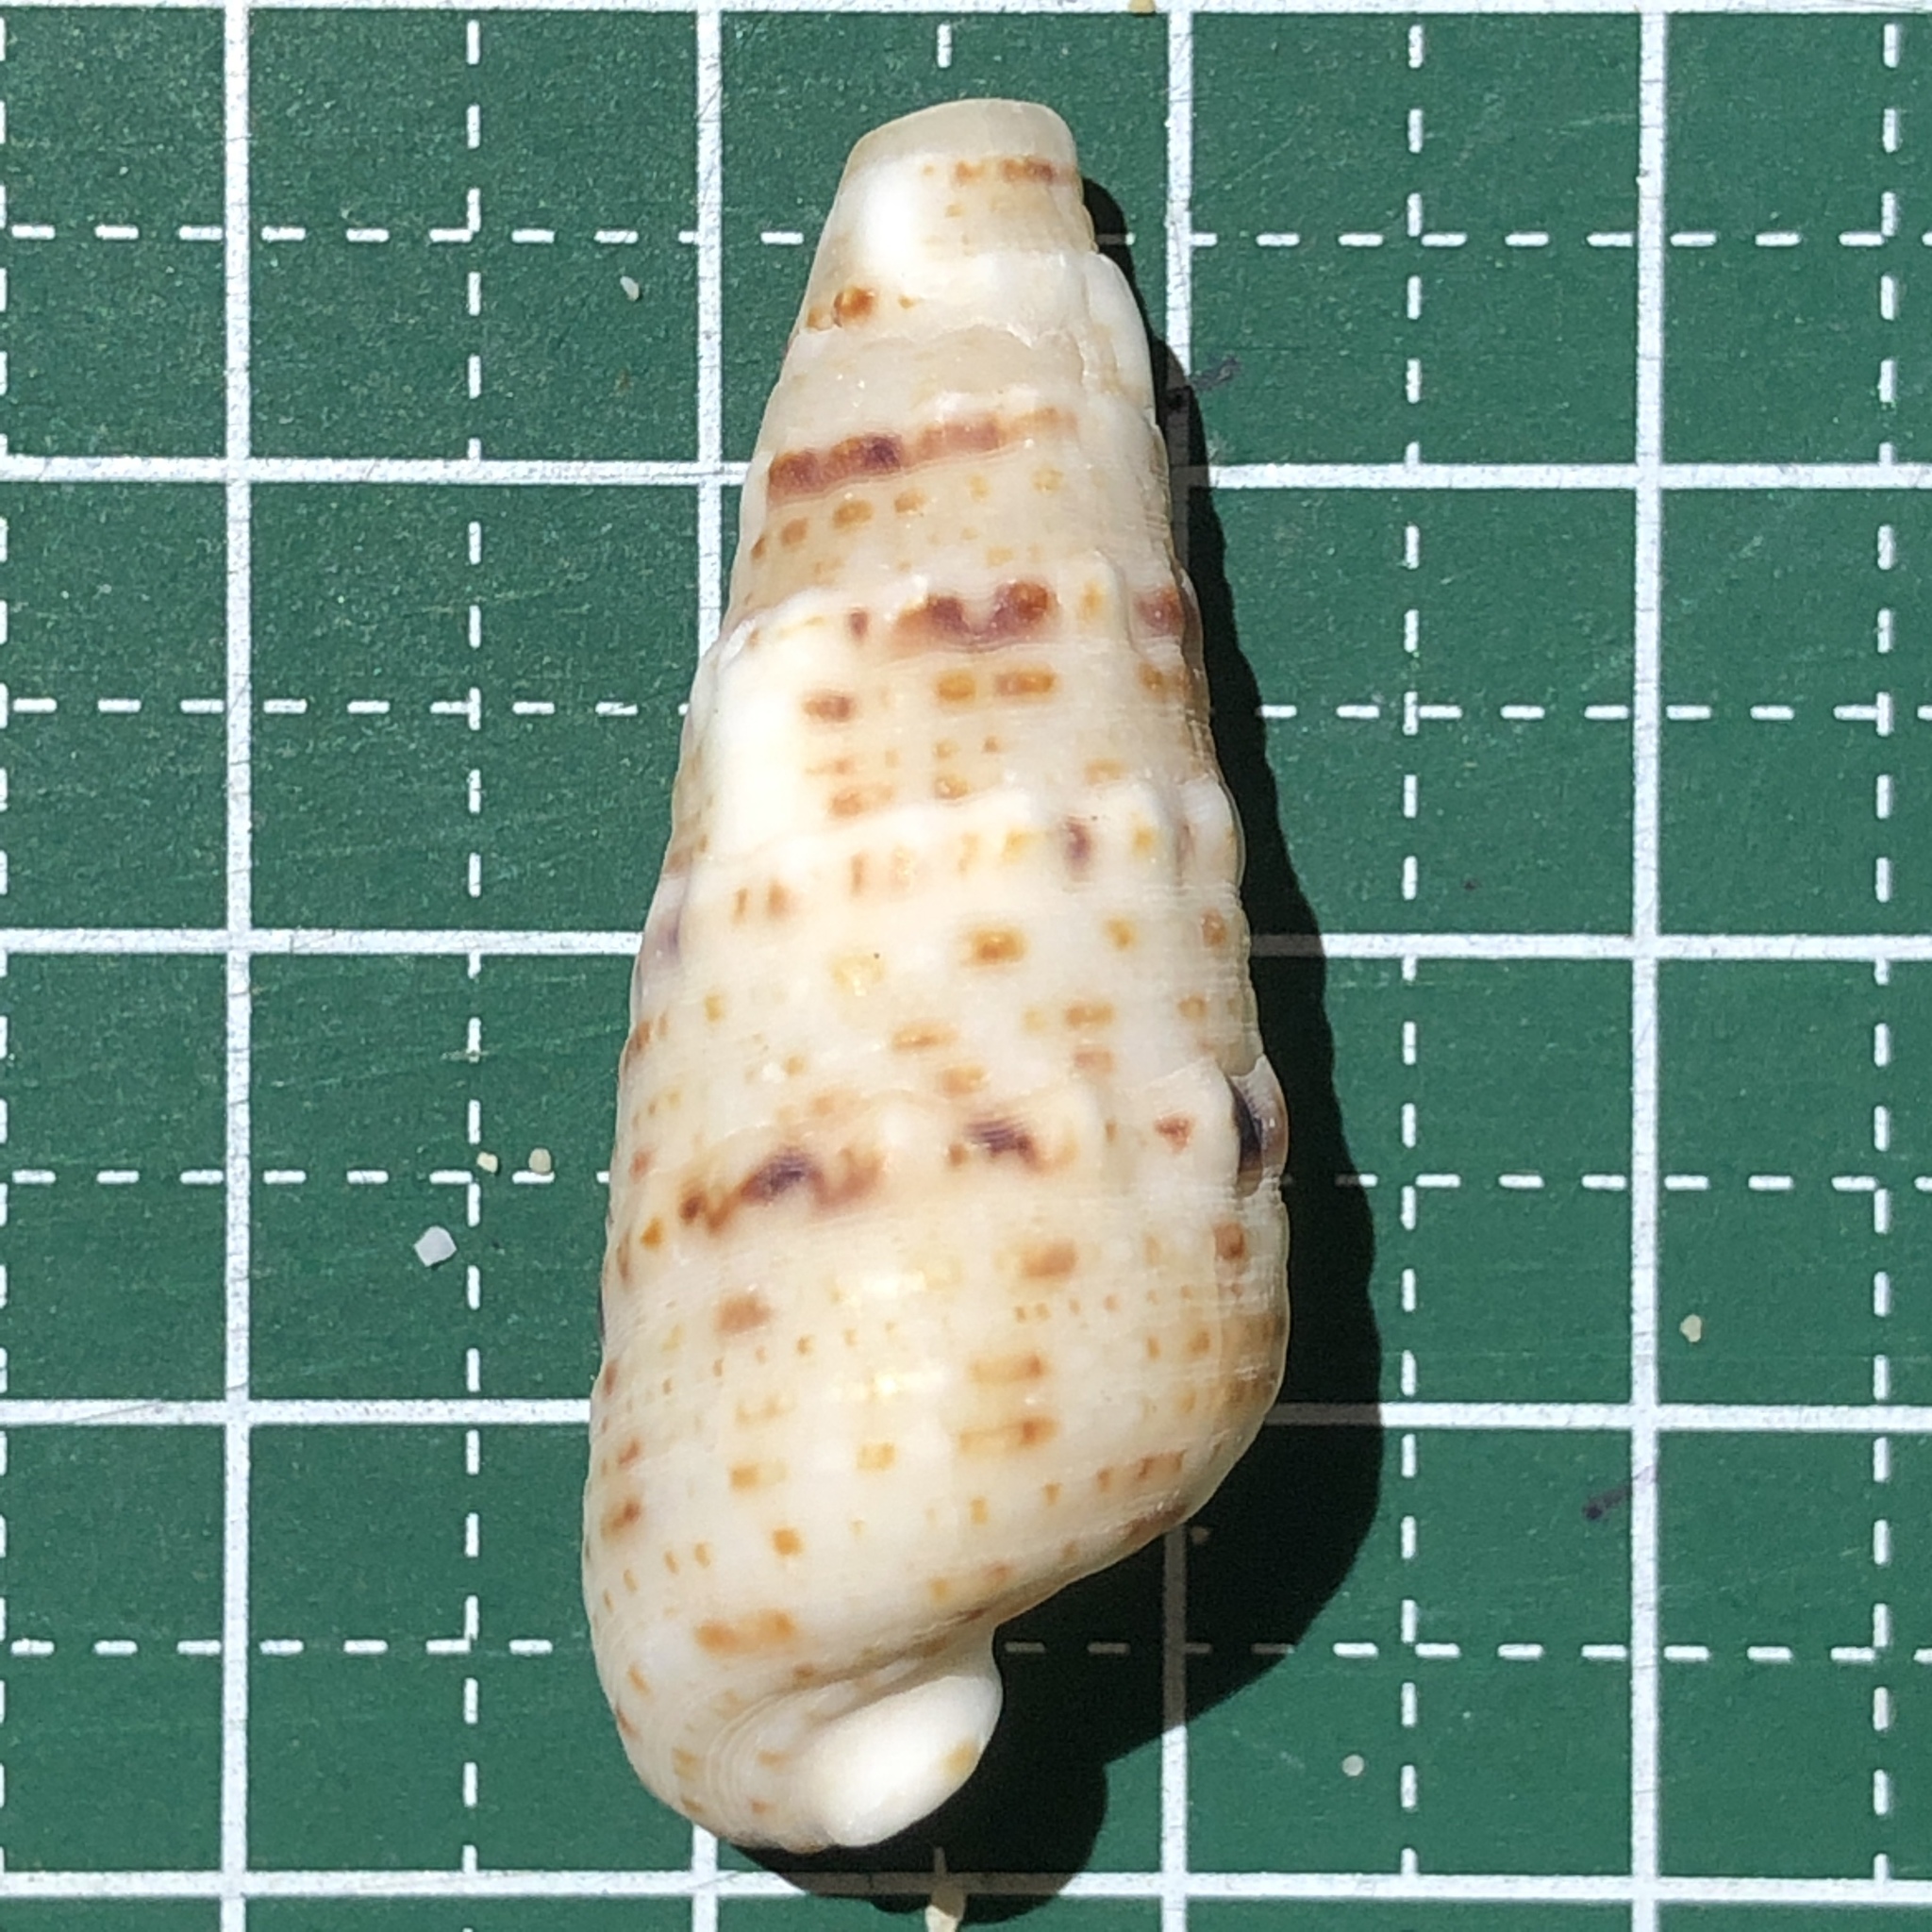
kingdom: Animalia
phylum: Mollusca
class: Gastropoda
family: Cerithiidae
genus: Rhinoclavis
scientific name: Rhinoclavis sinensis
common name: Knobbled horn shell
